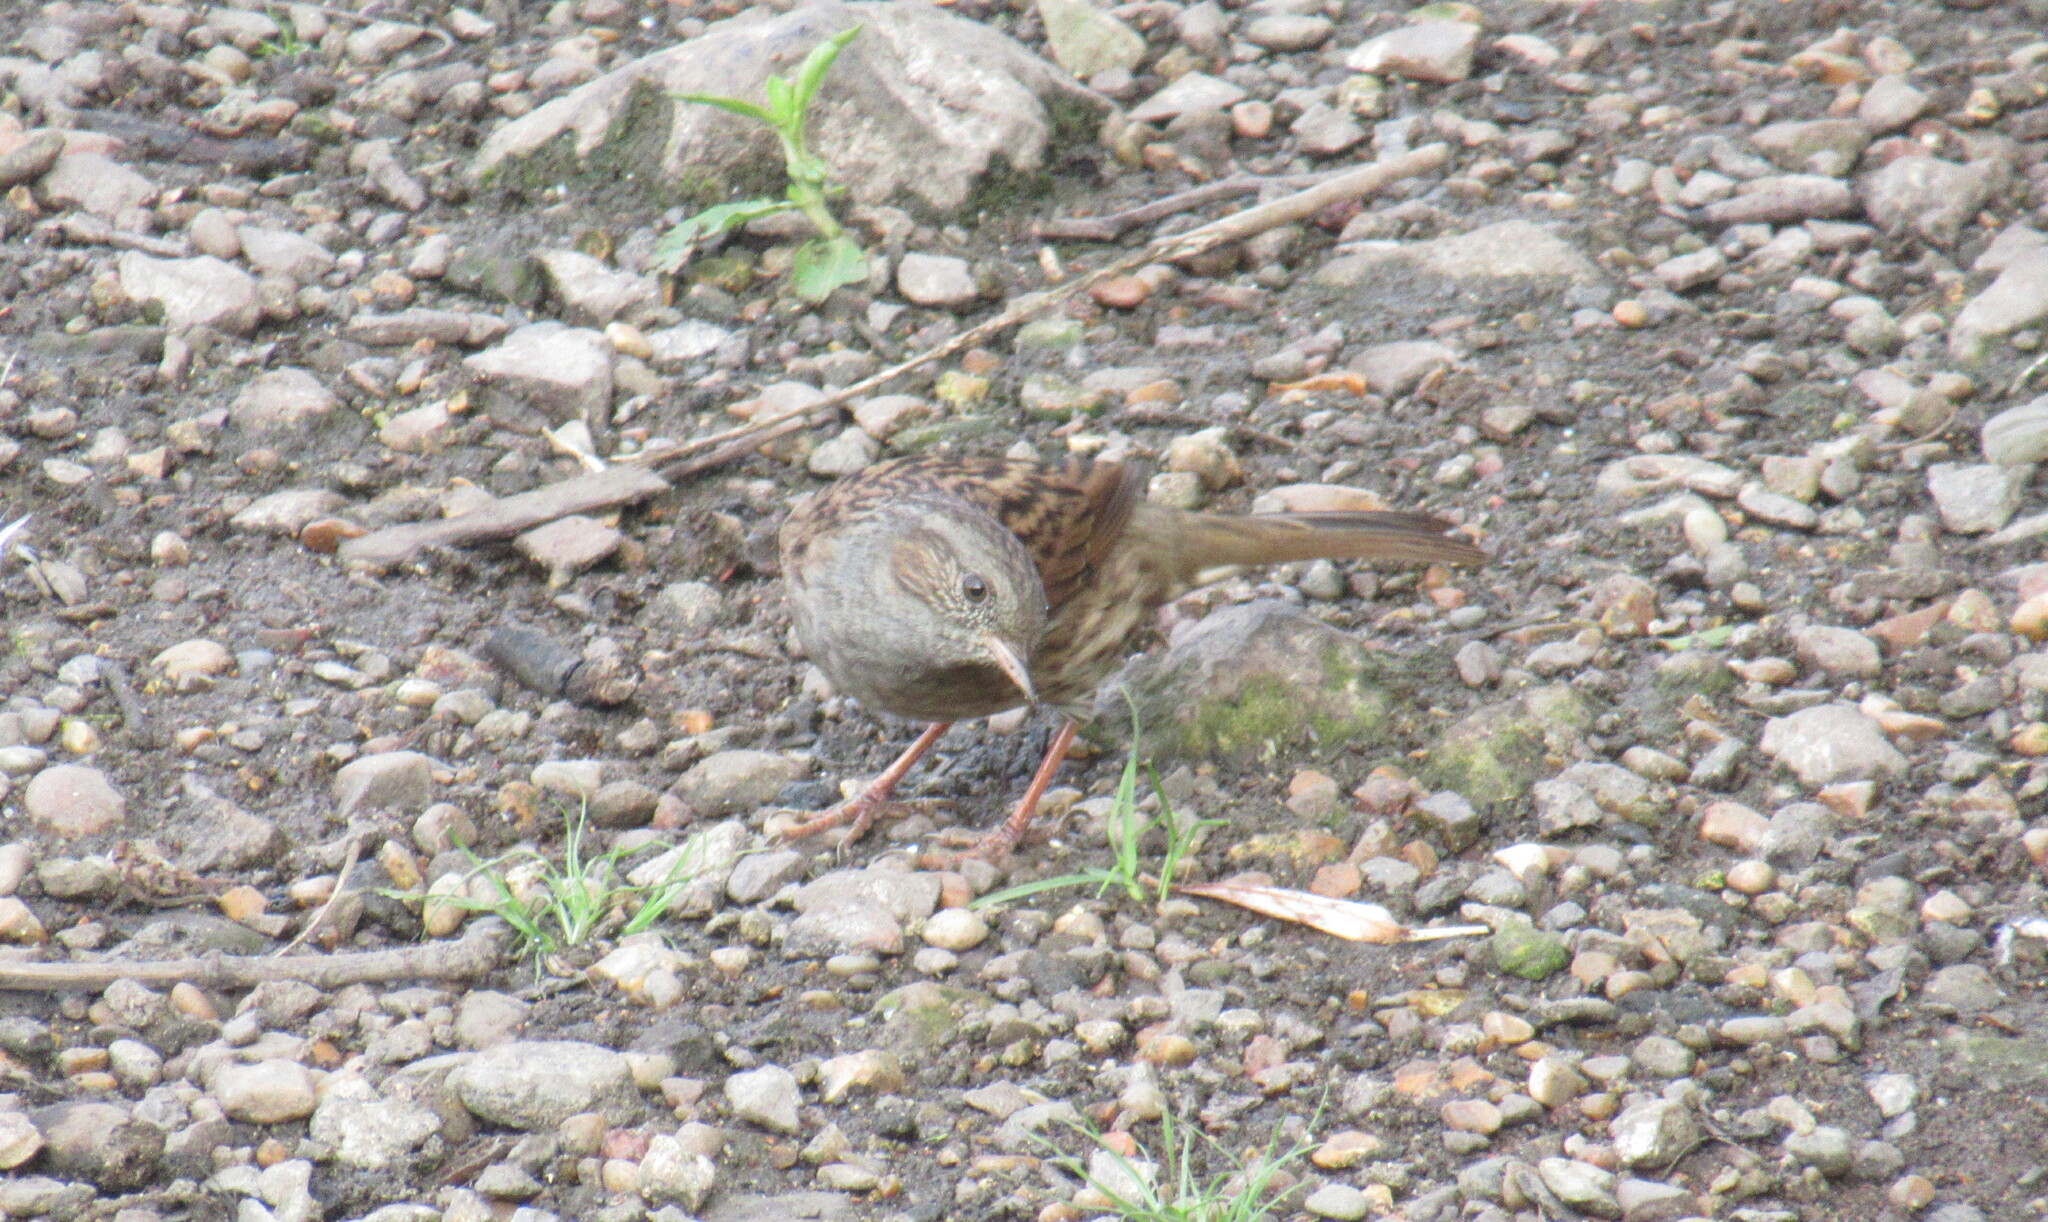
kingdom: Animalia
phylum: Chordata
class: Aves
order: Passeriformes
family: Prunellidae
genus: Prunella
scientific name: Prunella modularis
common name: Dunnock
